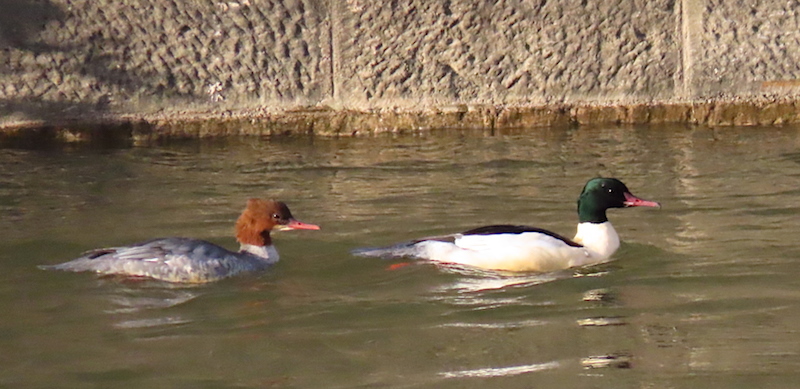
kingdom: Animalia
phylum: Chordata
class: Aves
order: Anseriformes
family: Anatidae
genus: Mergus
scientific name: Mergus merganser
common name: Common merganser
